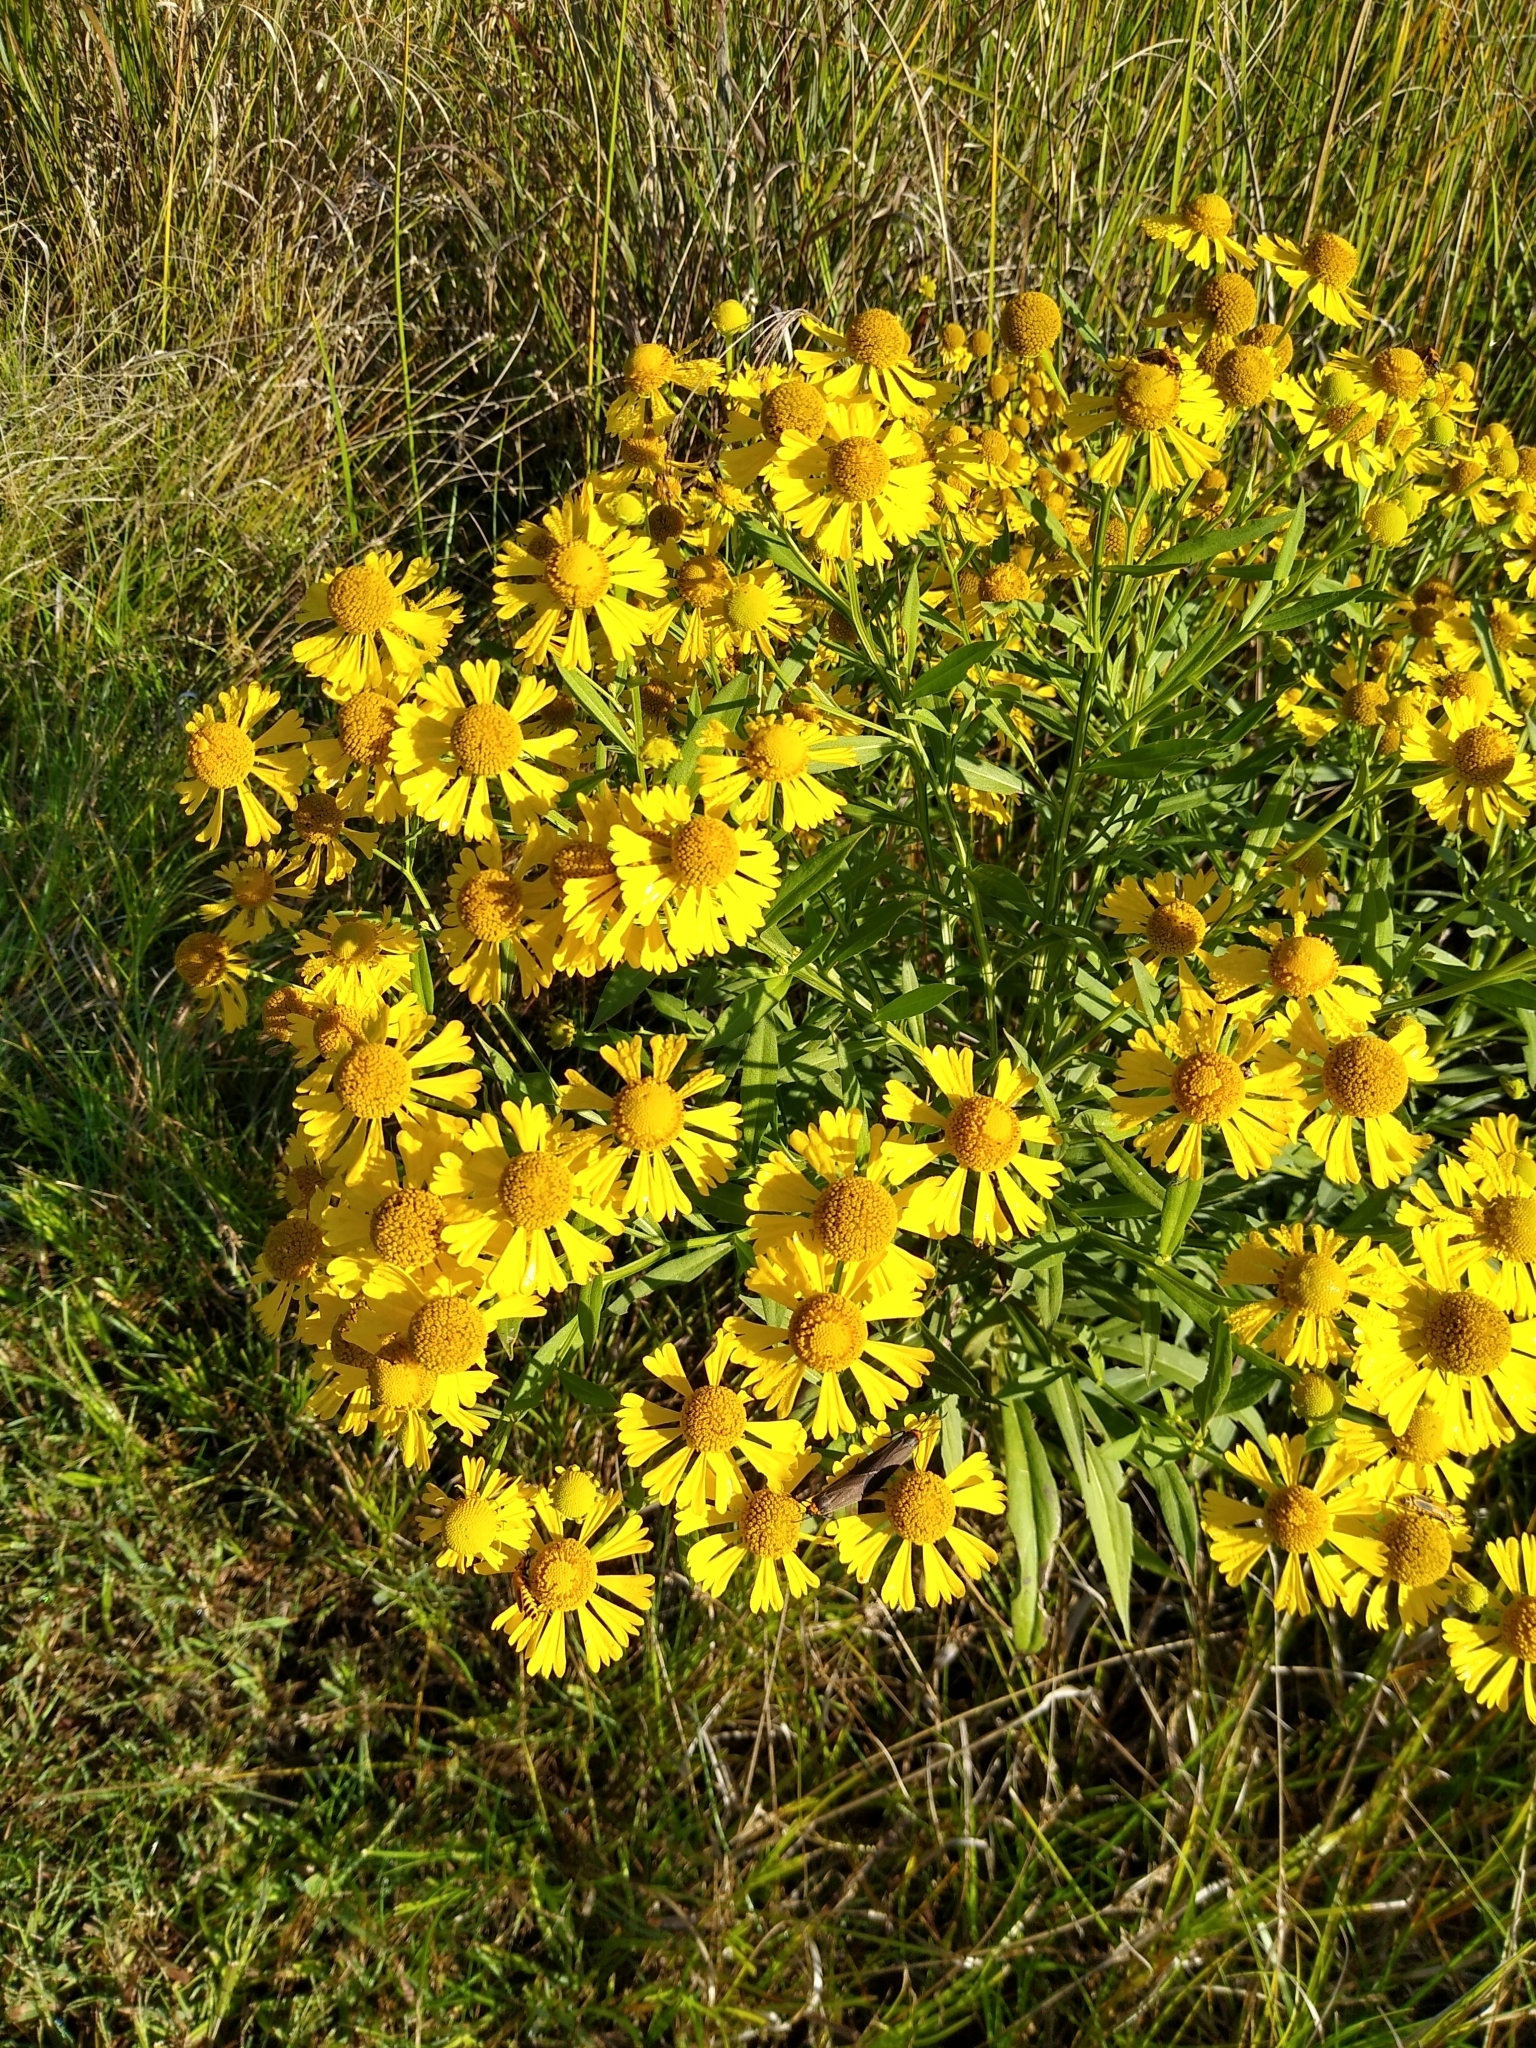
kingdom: Plantae
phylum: Tracheophyta
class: Magnoliopsida
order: Asterales
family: Asteraceae
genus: Helenium
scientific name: Helenium autumnale
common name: Sneezeweed
